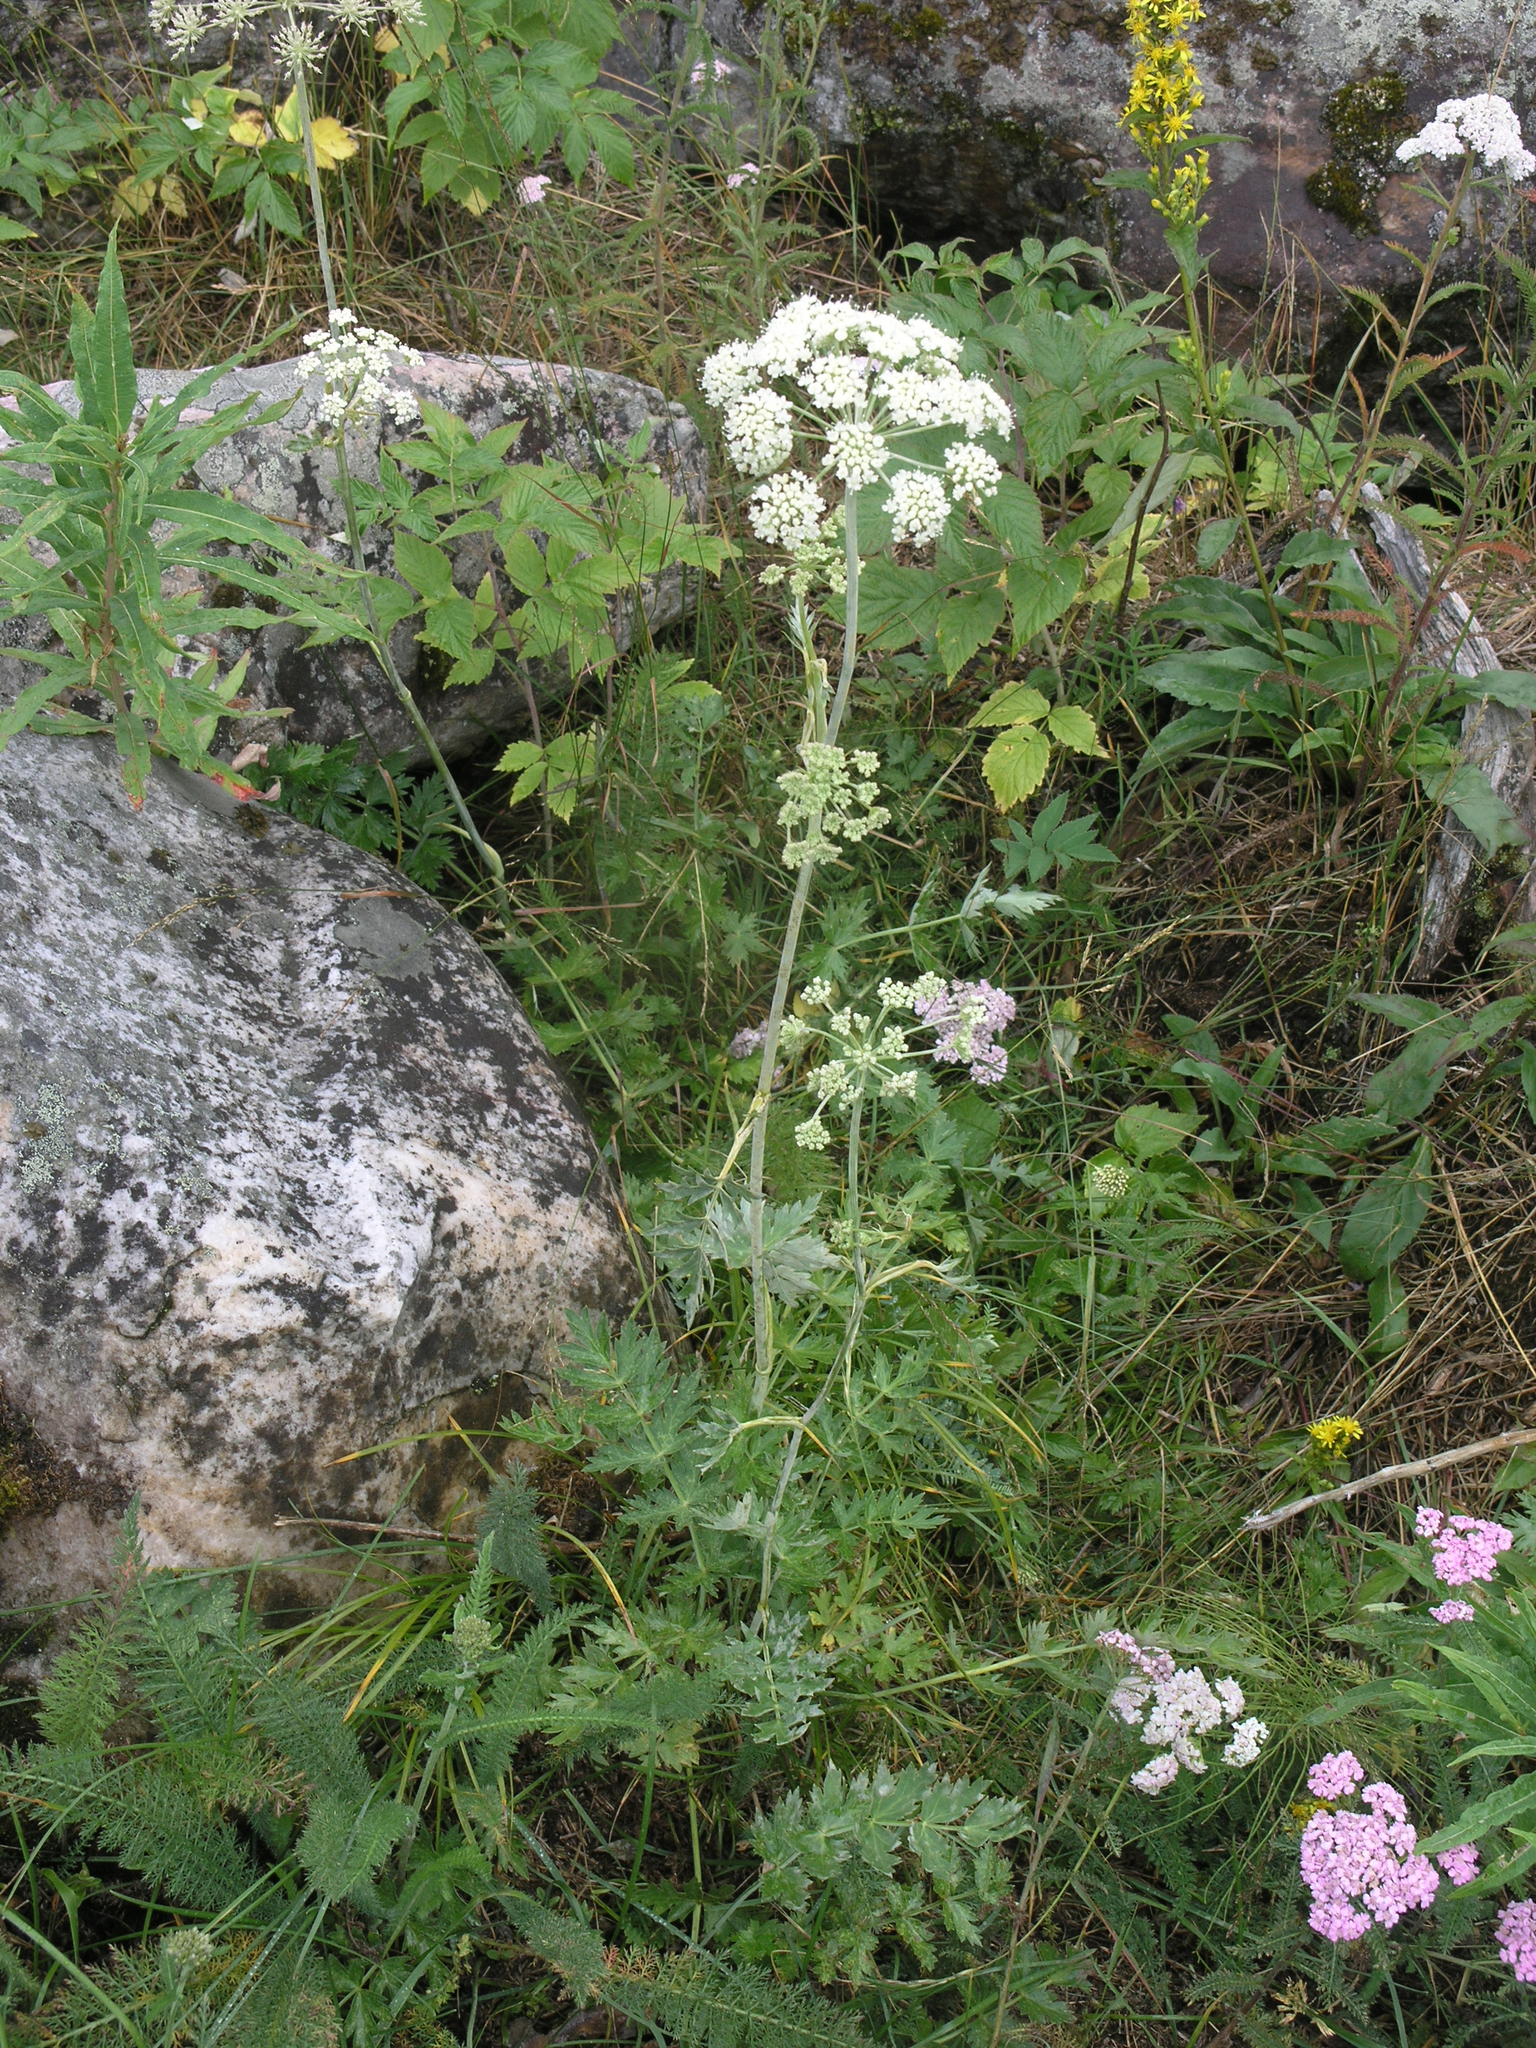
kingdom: Plantae
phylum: Tracheophyta
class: Magnoliopsida
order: Apiales
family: Apiaceae
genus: Seseli
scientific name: Seseli krylovii
